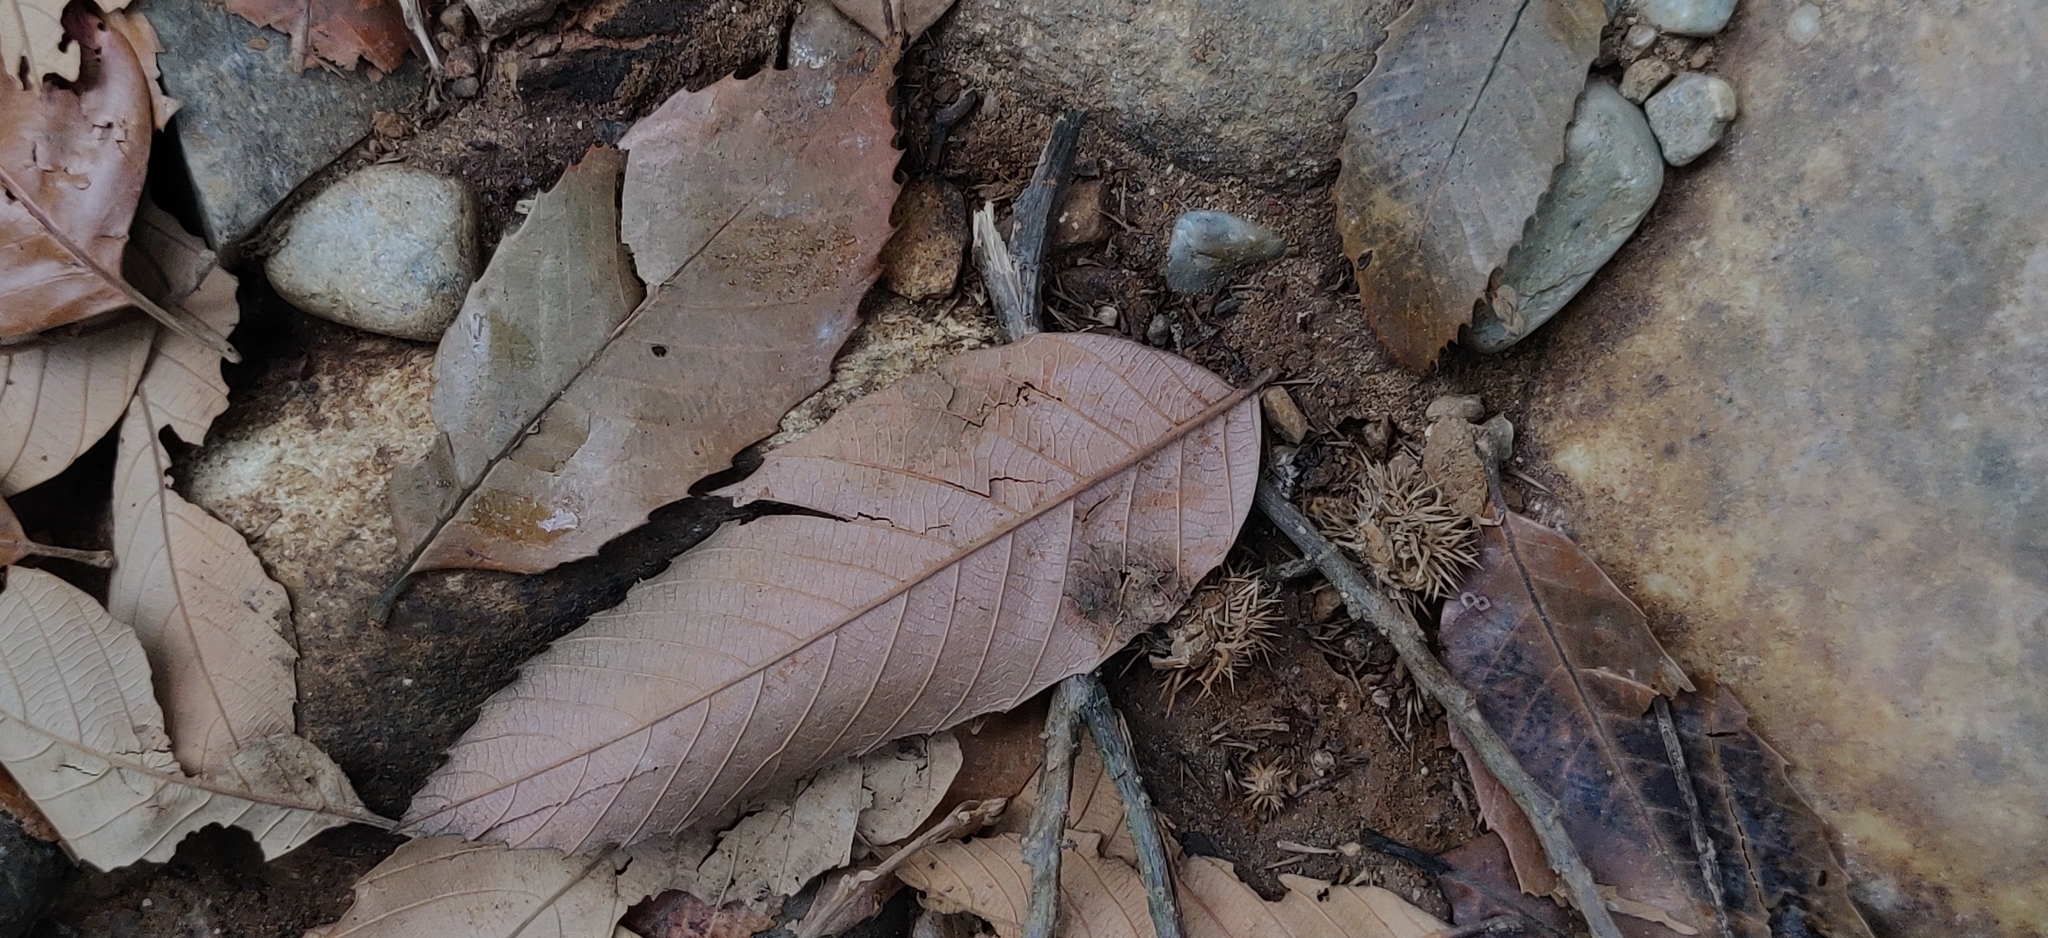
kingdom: Plantae
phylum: Tracheophyta
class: Magnoliopsida
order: Fagales
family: Fagaceae
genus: Castanopsis
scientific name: Castanopsis indica
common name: Indian-chestnut
